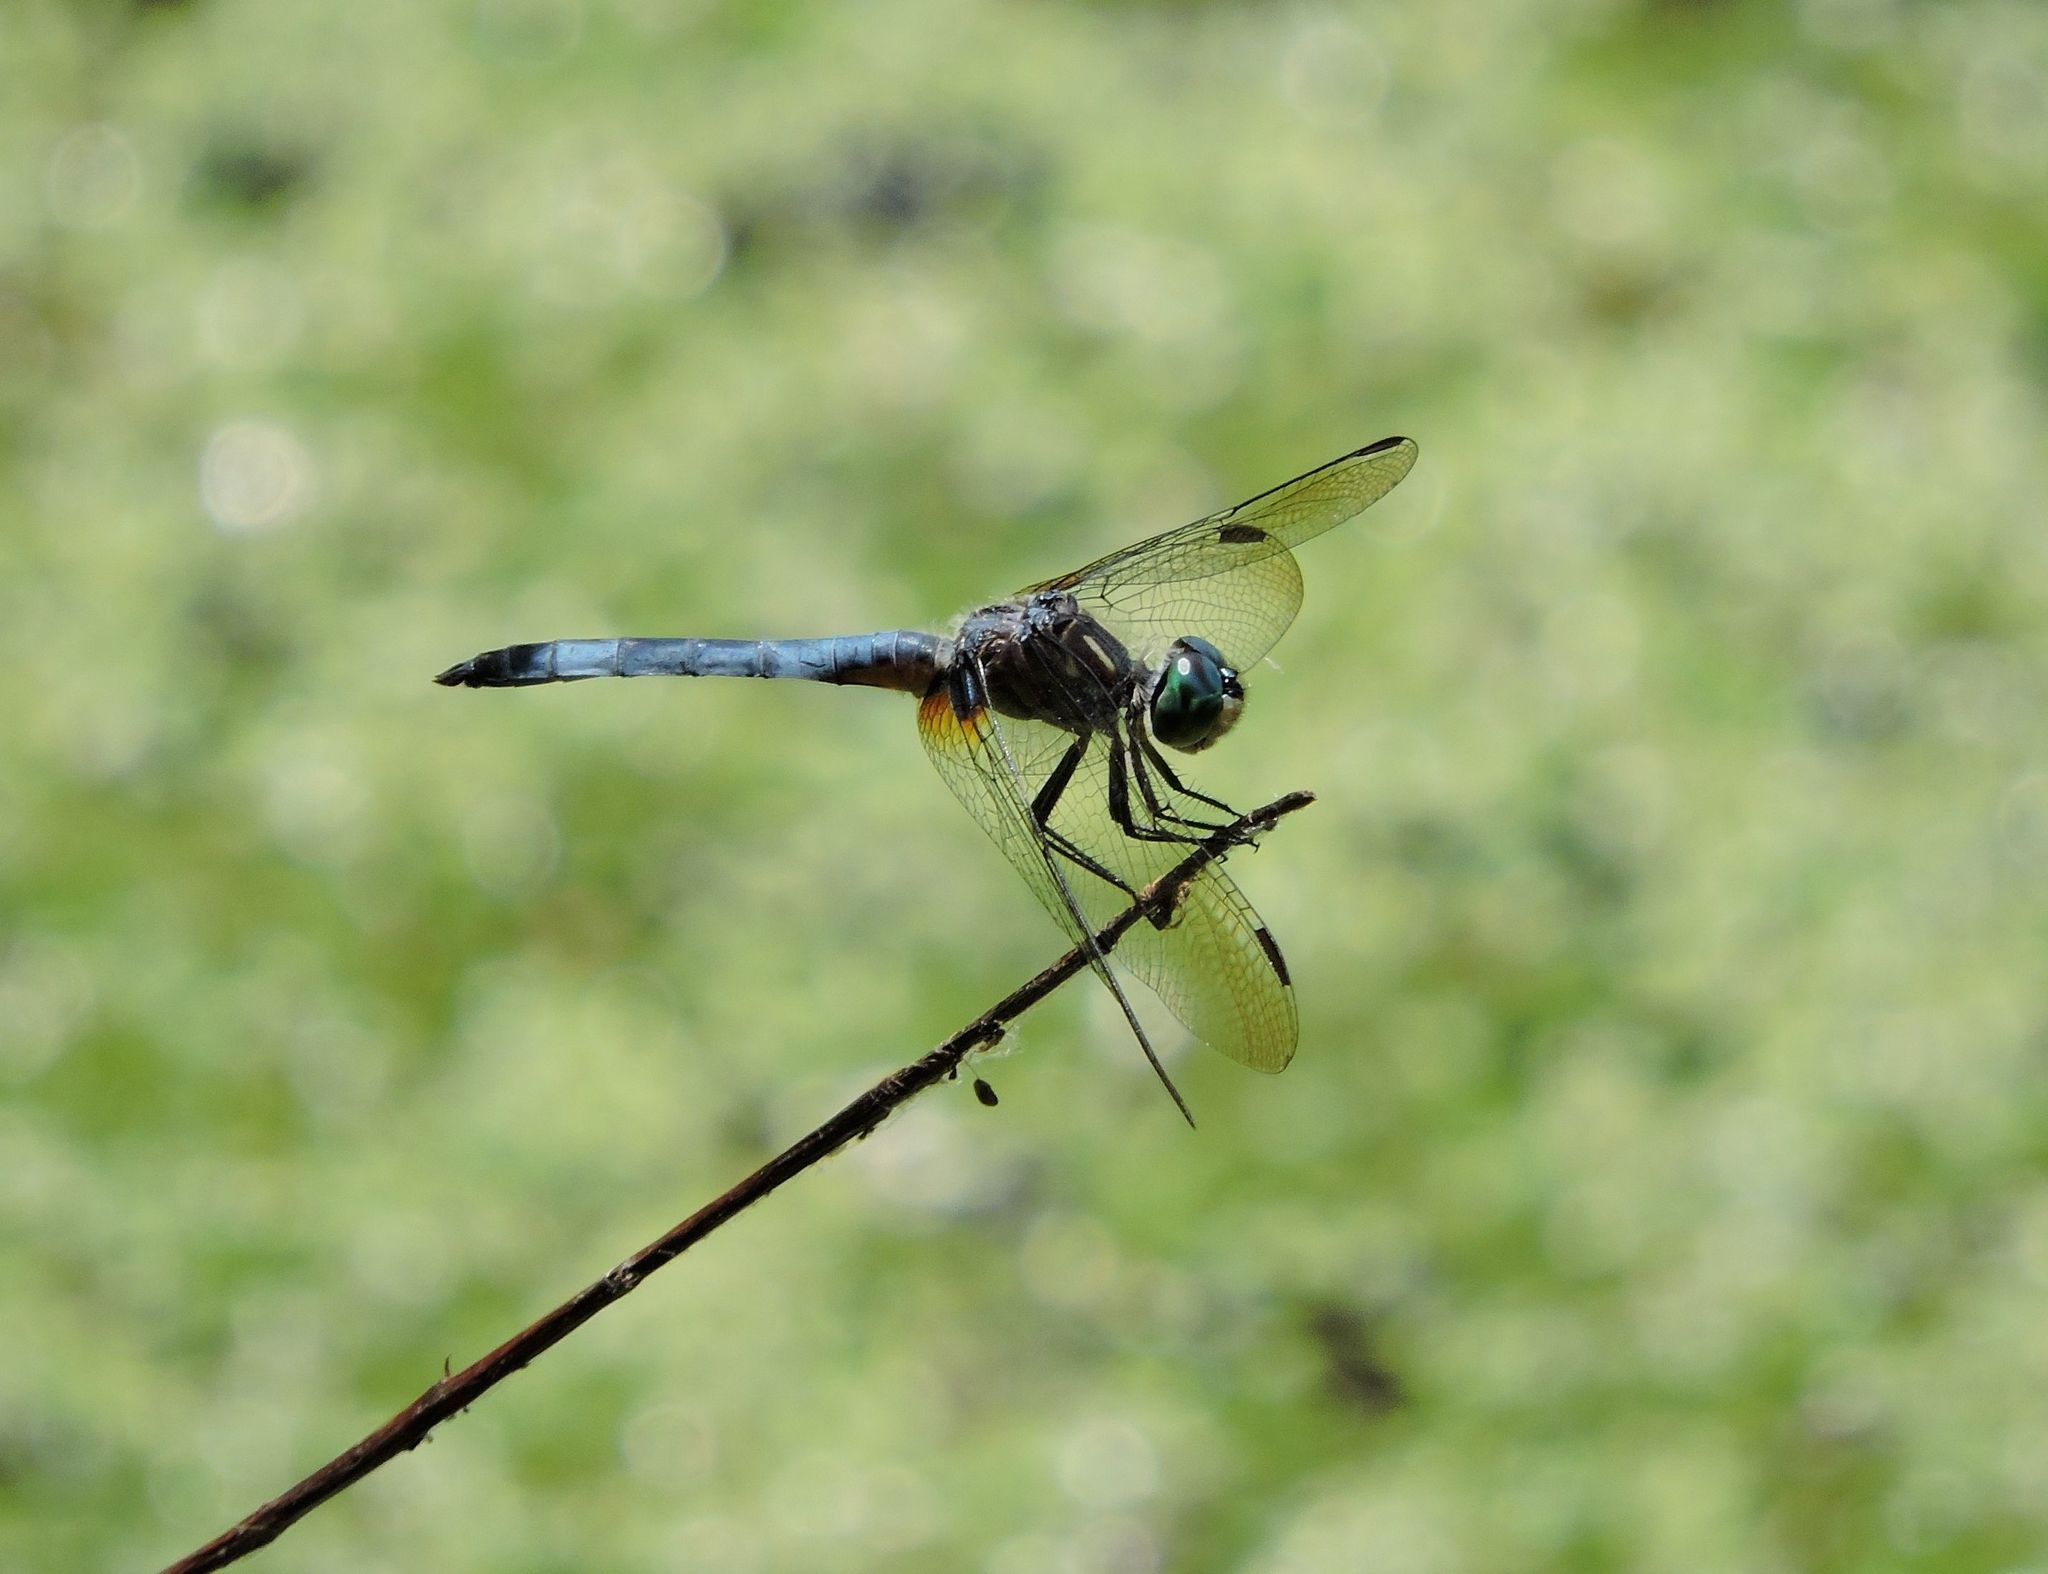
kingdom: Animalia
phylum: Arthropoda
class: Insecta
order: Odonata
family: Libellulidae
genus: Pachydiplax
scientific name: Pachydiplax longipennis
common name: Blue dasher
